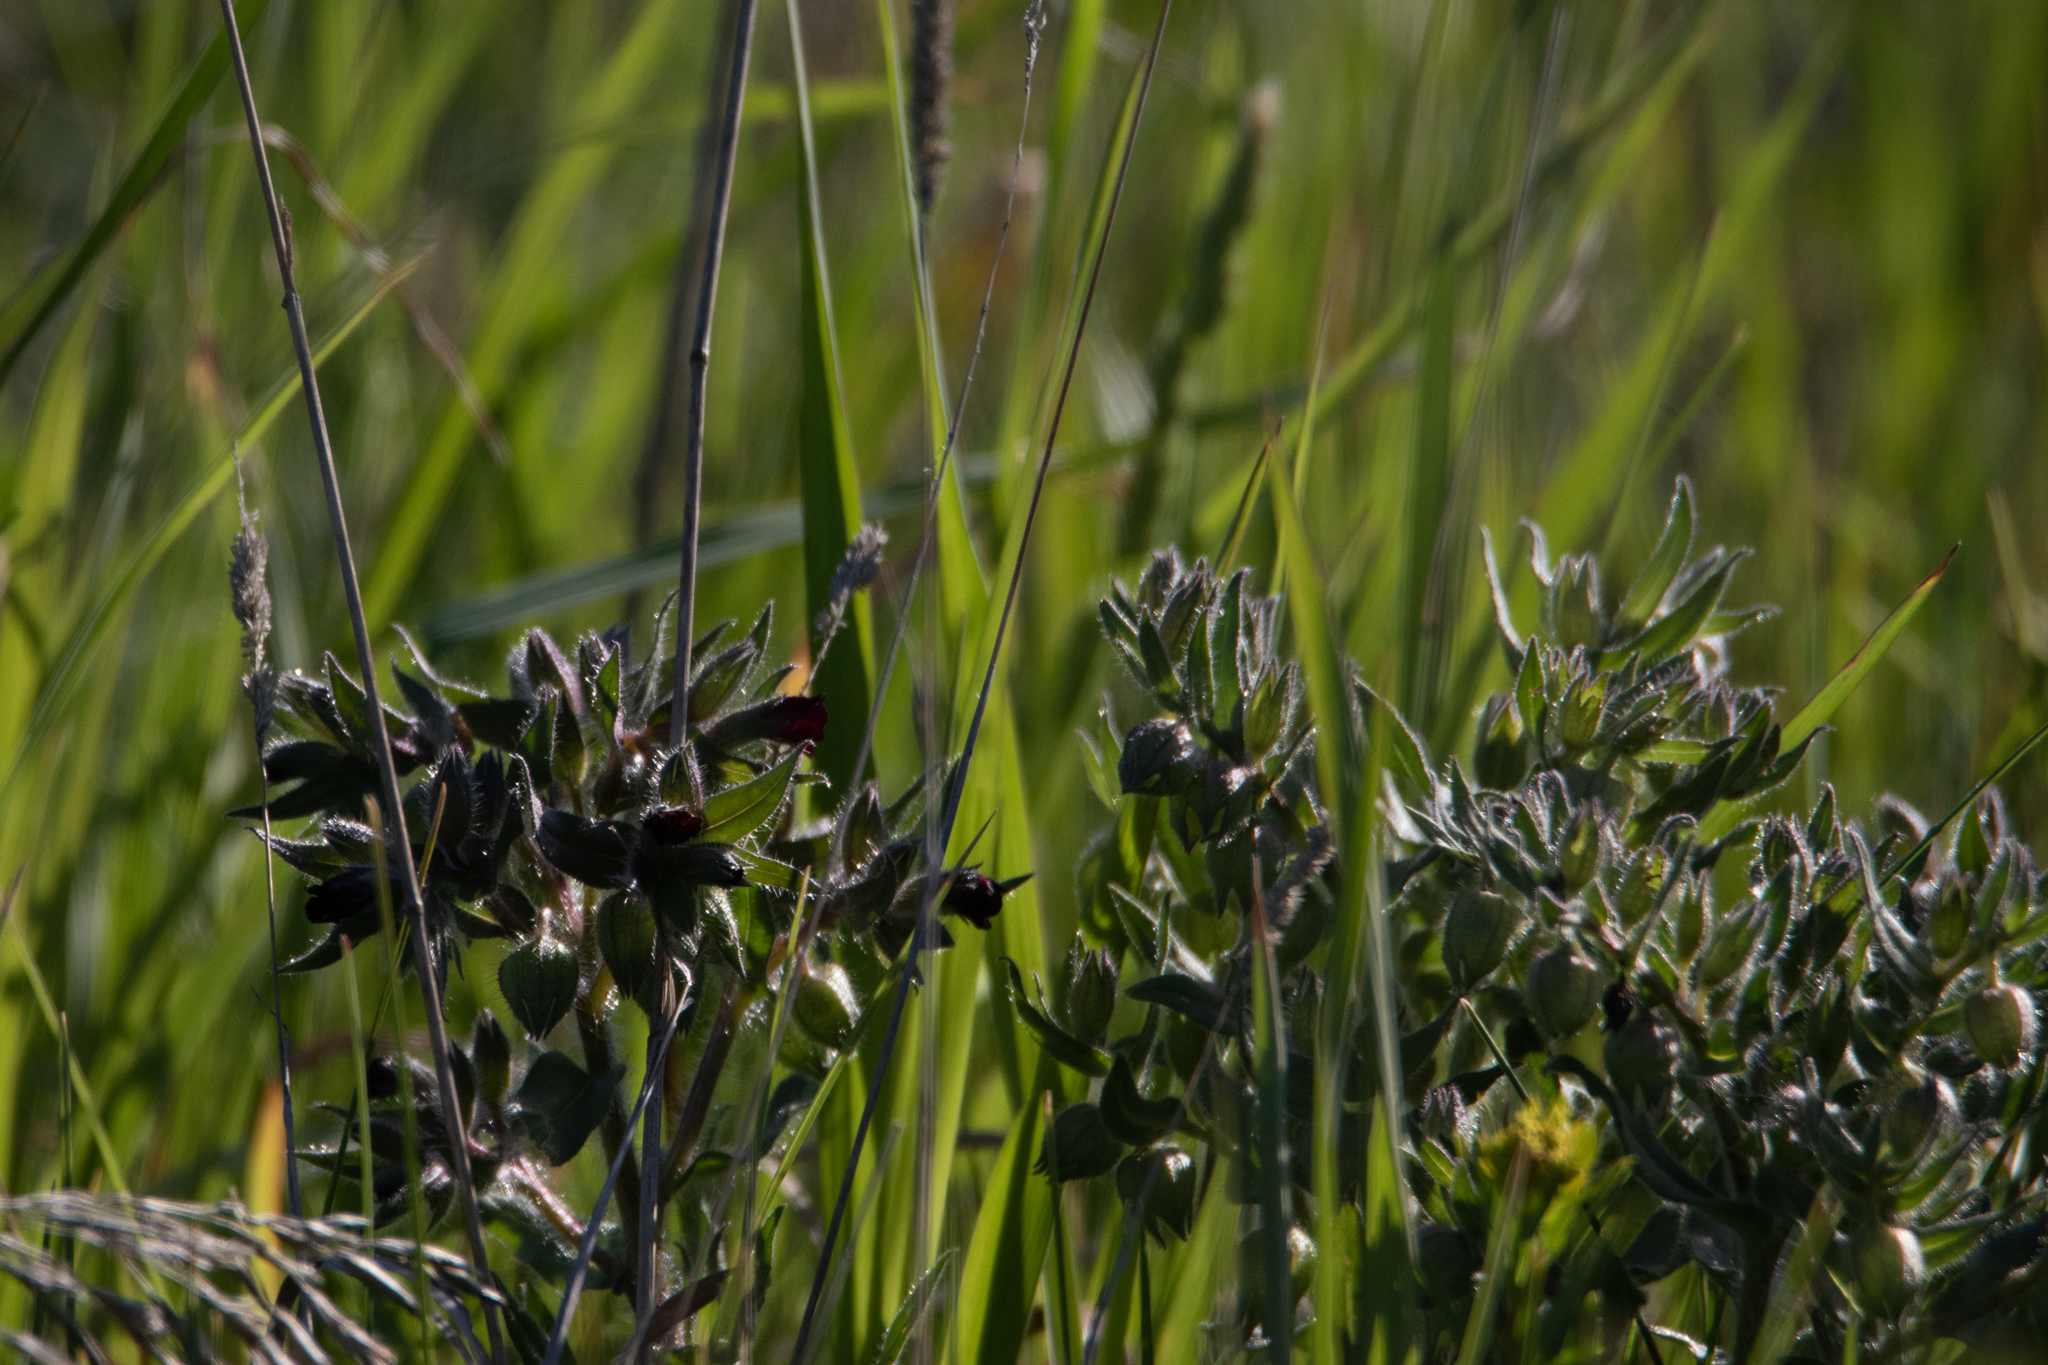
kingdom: Plantae
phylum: Tracheophyta
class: Magnoliopsida
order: Boraginales
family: Boraginaceae
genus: Nonea
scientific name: Nonea pulla
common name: Brown nonea
